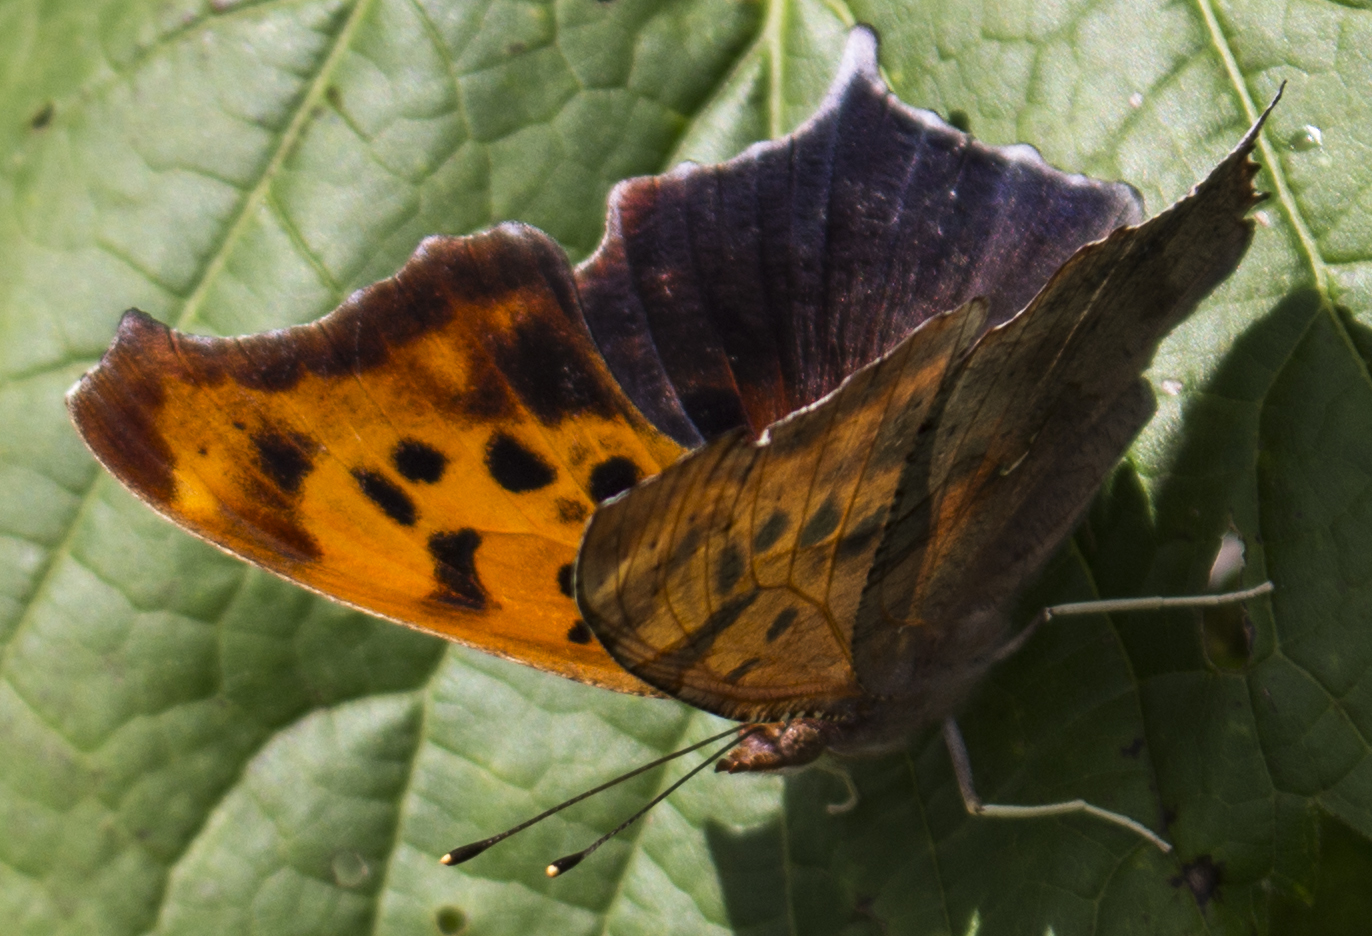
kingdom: Animalia
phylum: Arthropoda
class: Insecta
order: Lepidoptera
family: Nymphalidae
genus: Polygonia
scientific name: Polygonia interrogationis
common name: Question mark
